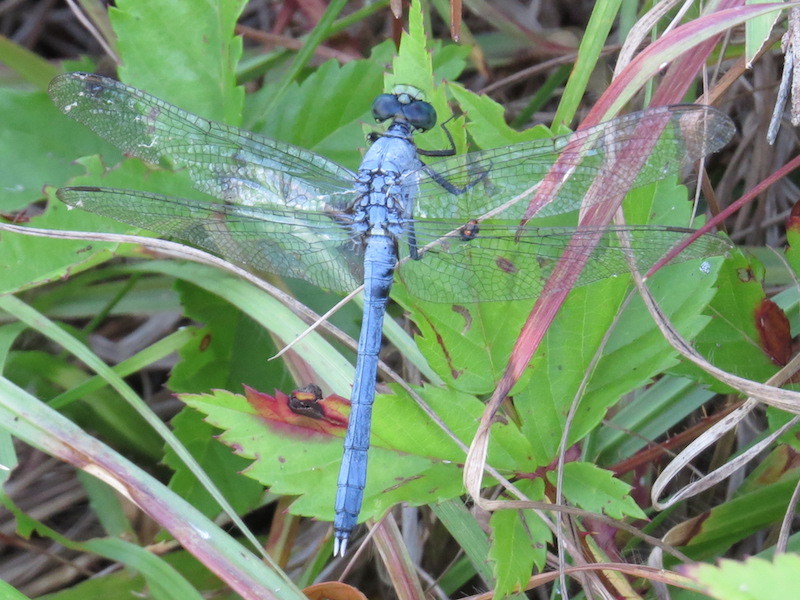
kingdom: Animalia
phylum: Arthropoda
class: Insecta
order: Odonata
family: Libellulidae
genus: Erythemis
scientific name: Erythemis simplicicollis
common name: Eastern pondhawk
